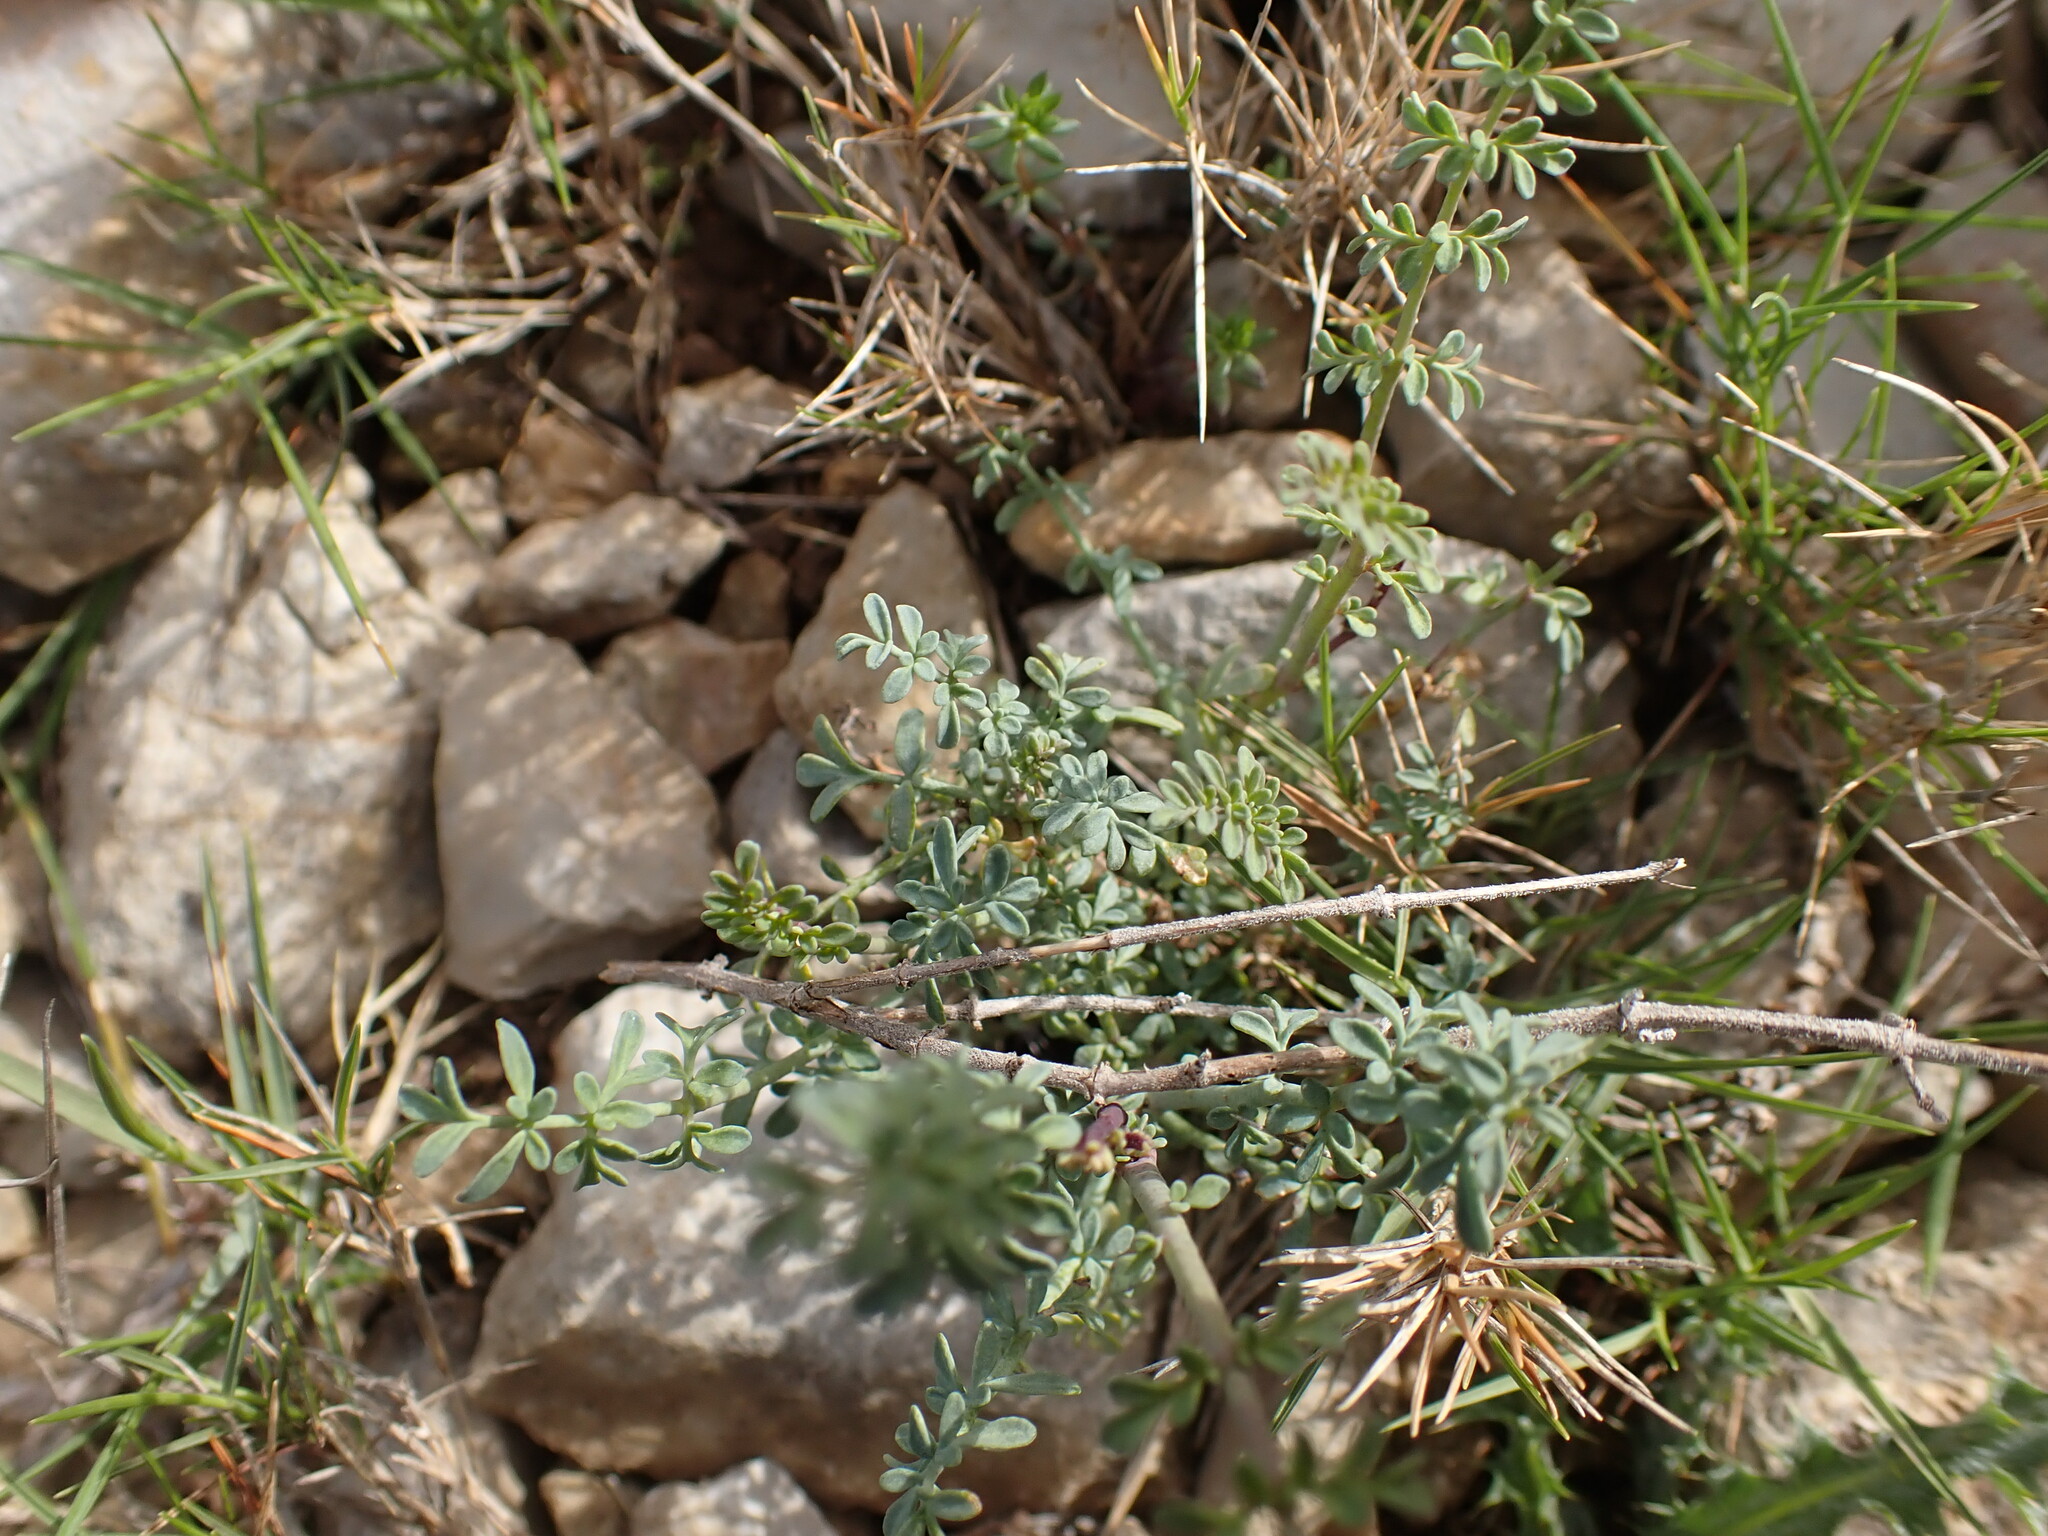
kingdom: Plantae
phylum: Tracheophyta
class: Magnoliopsida
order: Sapindales
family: Rutaceae
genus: Ruta
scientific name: Ruta angustifolia
